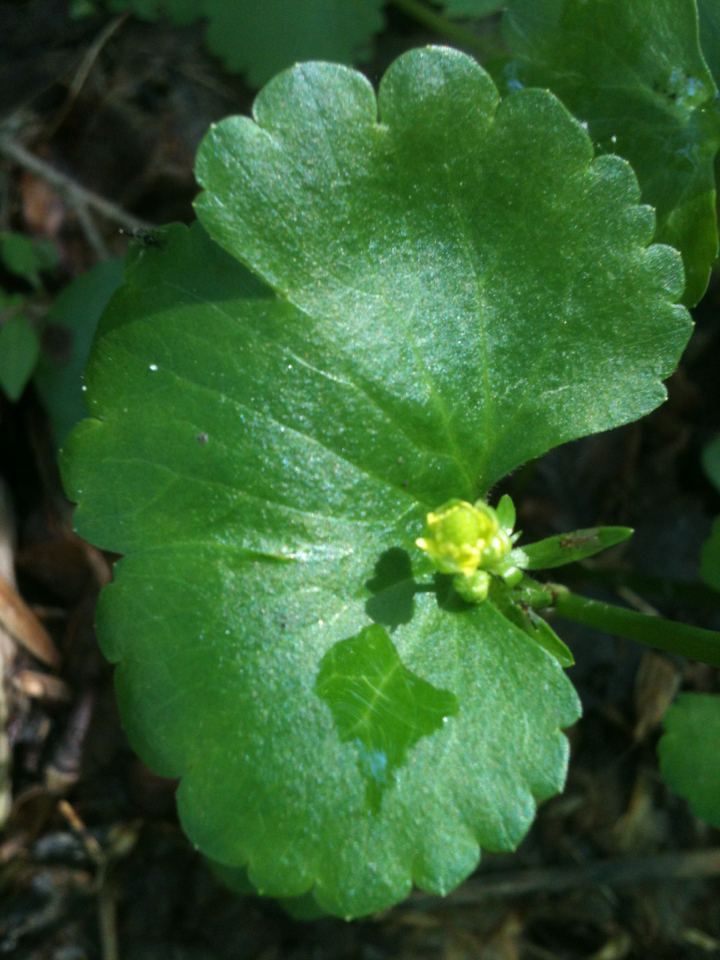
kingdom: Plantae
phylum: Tracheophyta
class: Magnoliopsida
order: Ranunculales
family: Ranunculaceae
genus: Ranunculus
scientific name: Ranunculus abortivus
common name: Early wood buttercup
